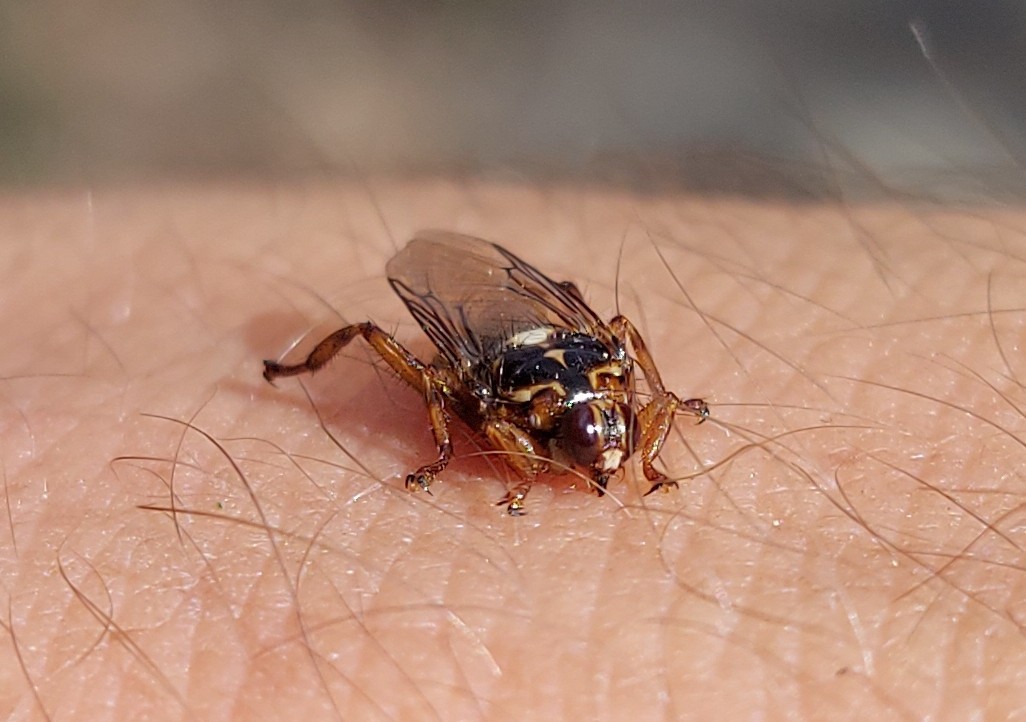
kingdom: Animalia
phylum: Arthropoda
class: Insecta
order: Diptera
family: Hippoboscidae
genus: Hippobosca
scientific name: Hippobosca equina
